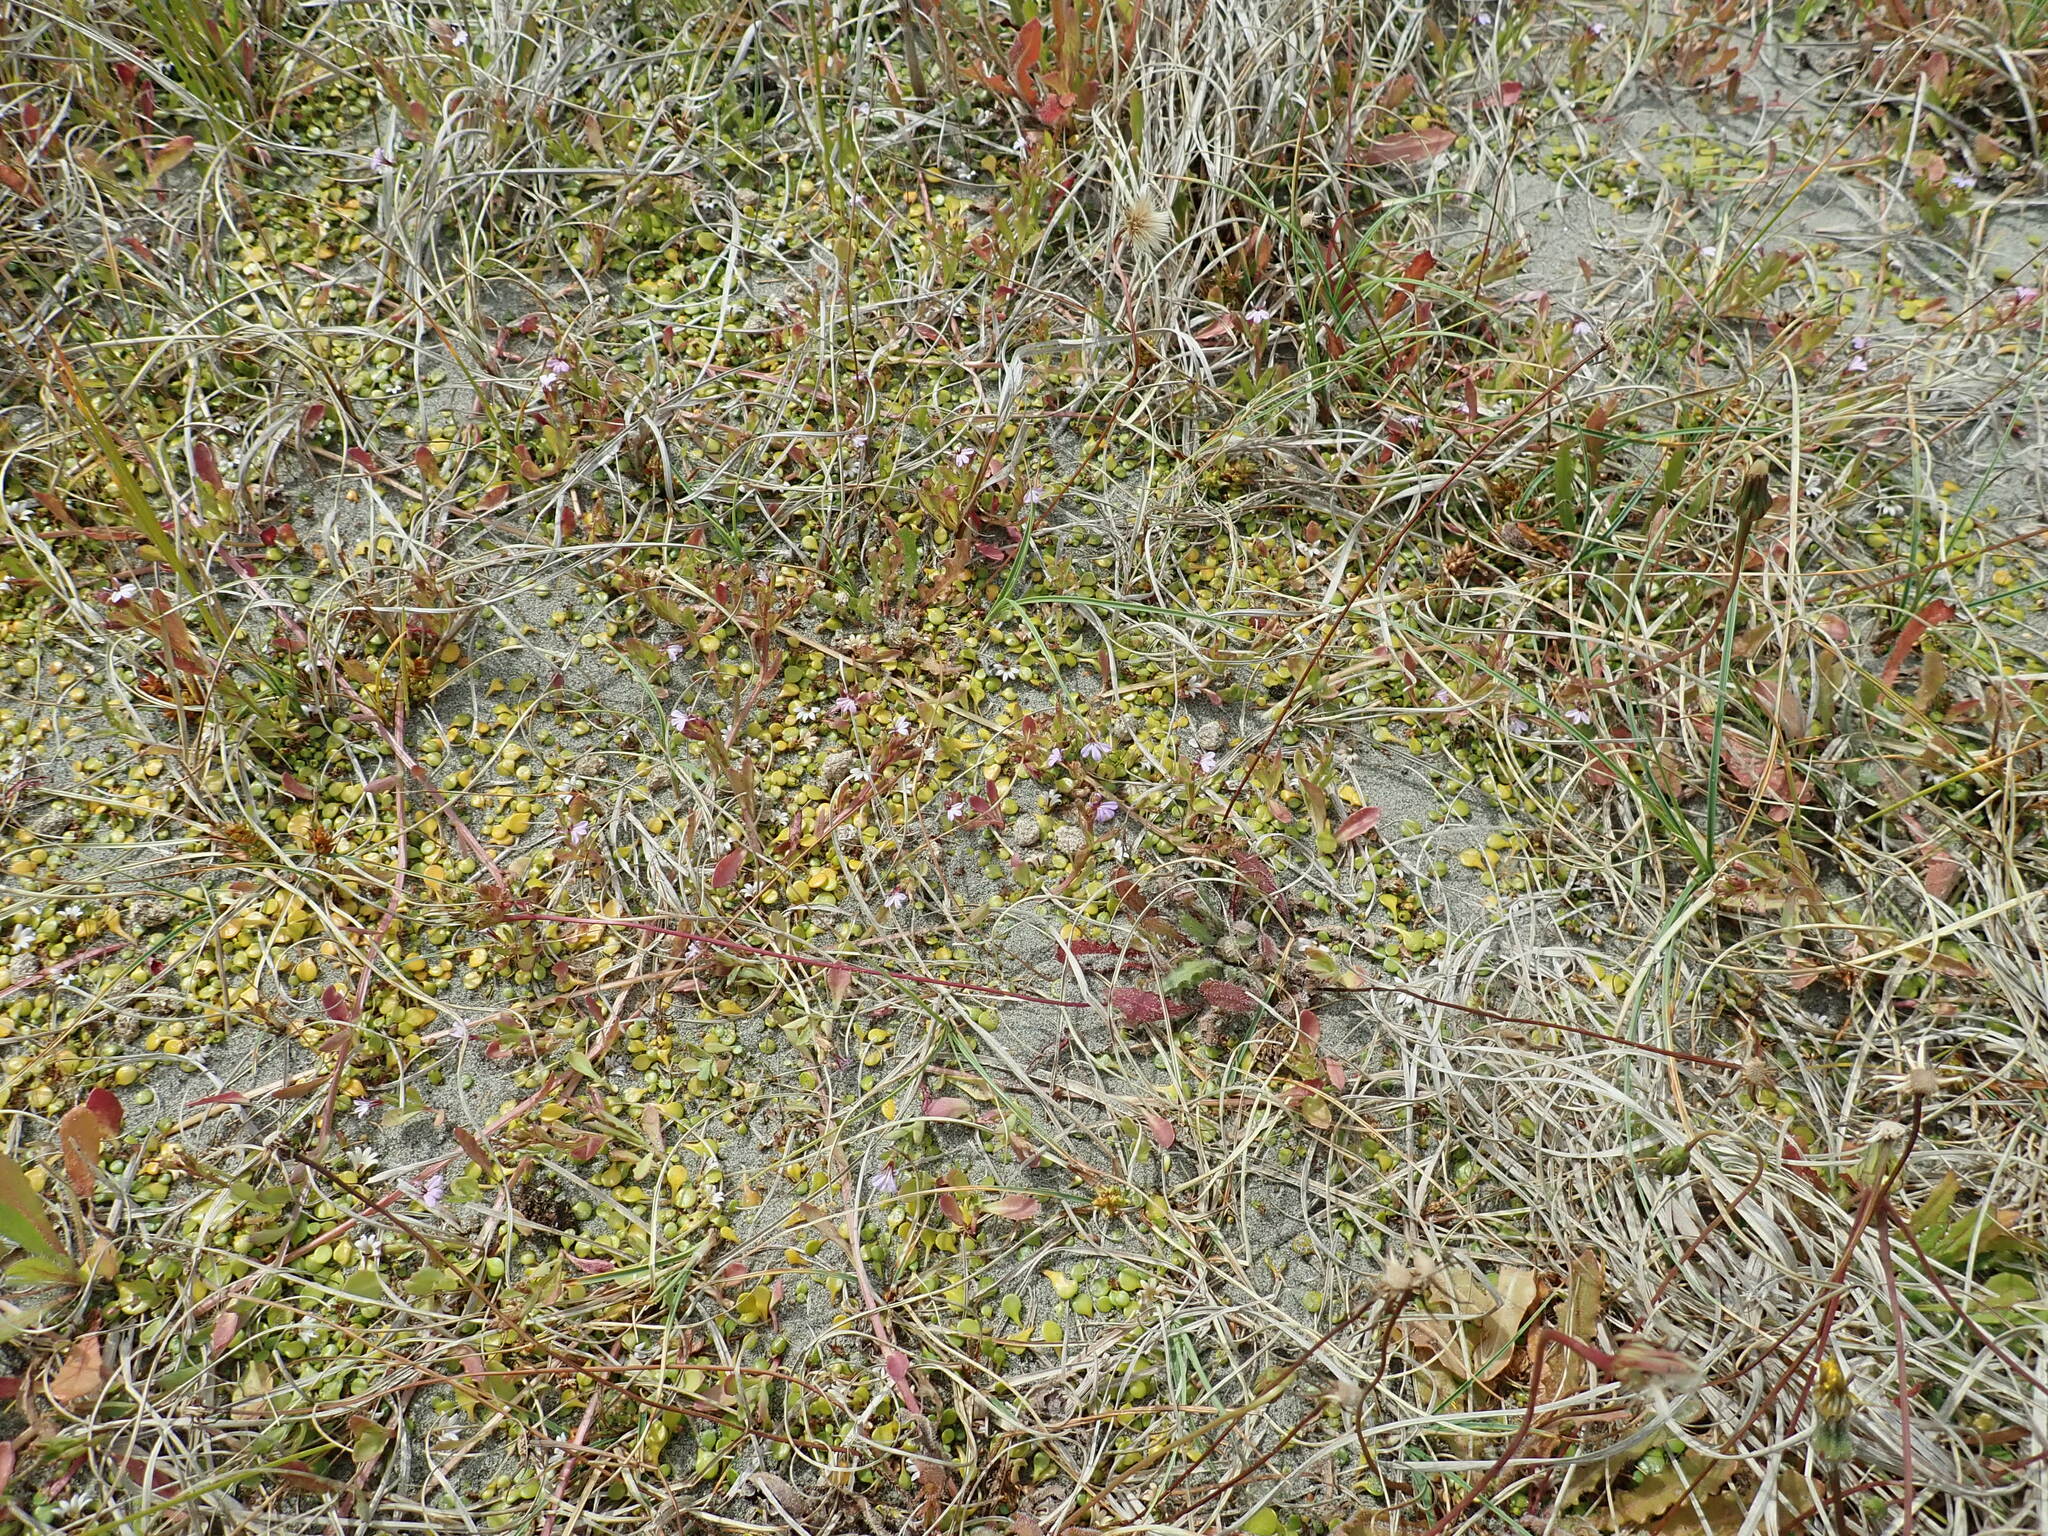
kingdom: Plantae
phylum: Tracheophyta
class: Magnoliopsida
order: Asterales
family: Campanulaceae
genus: Lobelia
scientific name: Lobelia anceps
